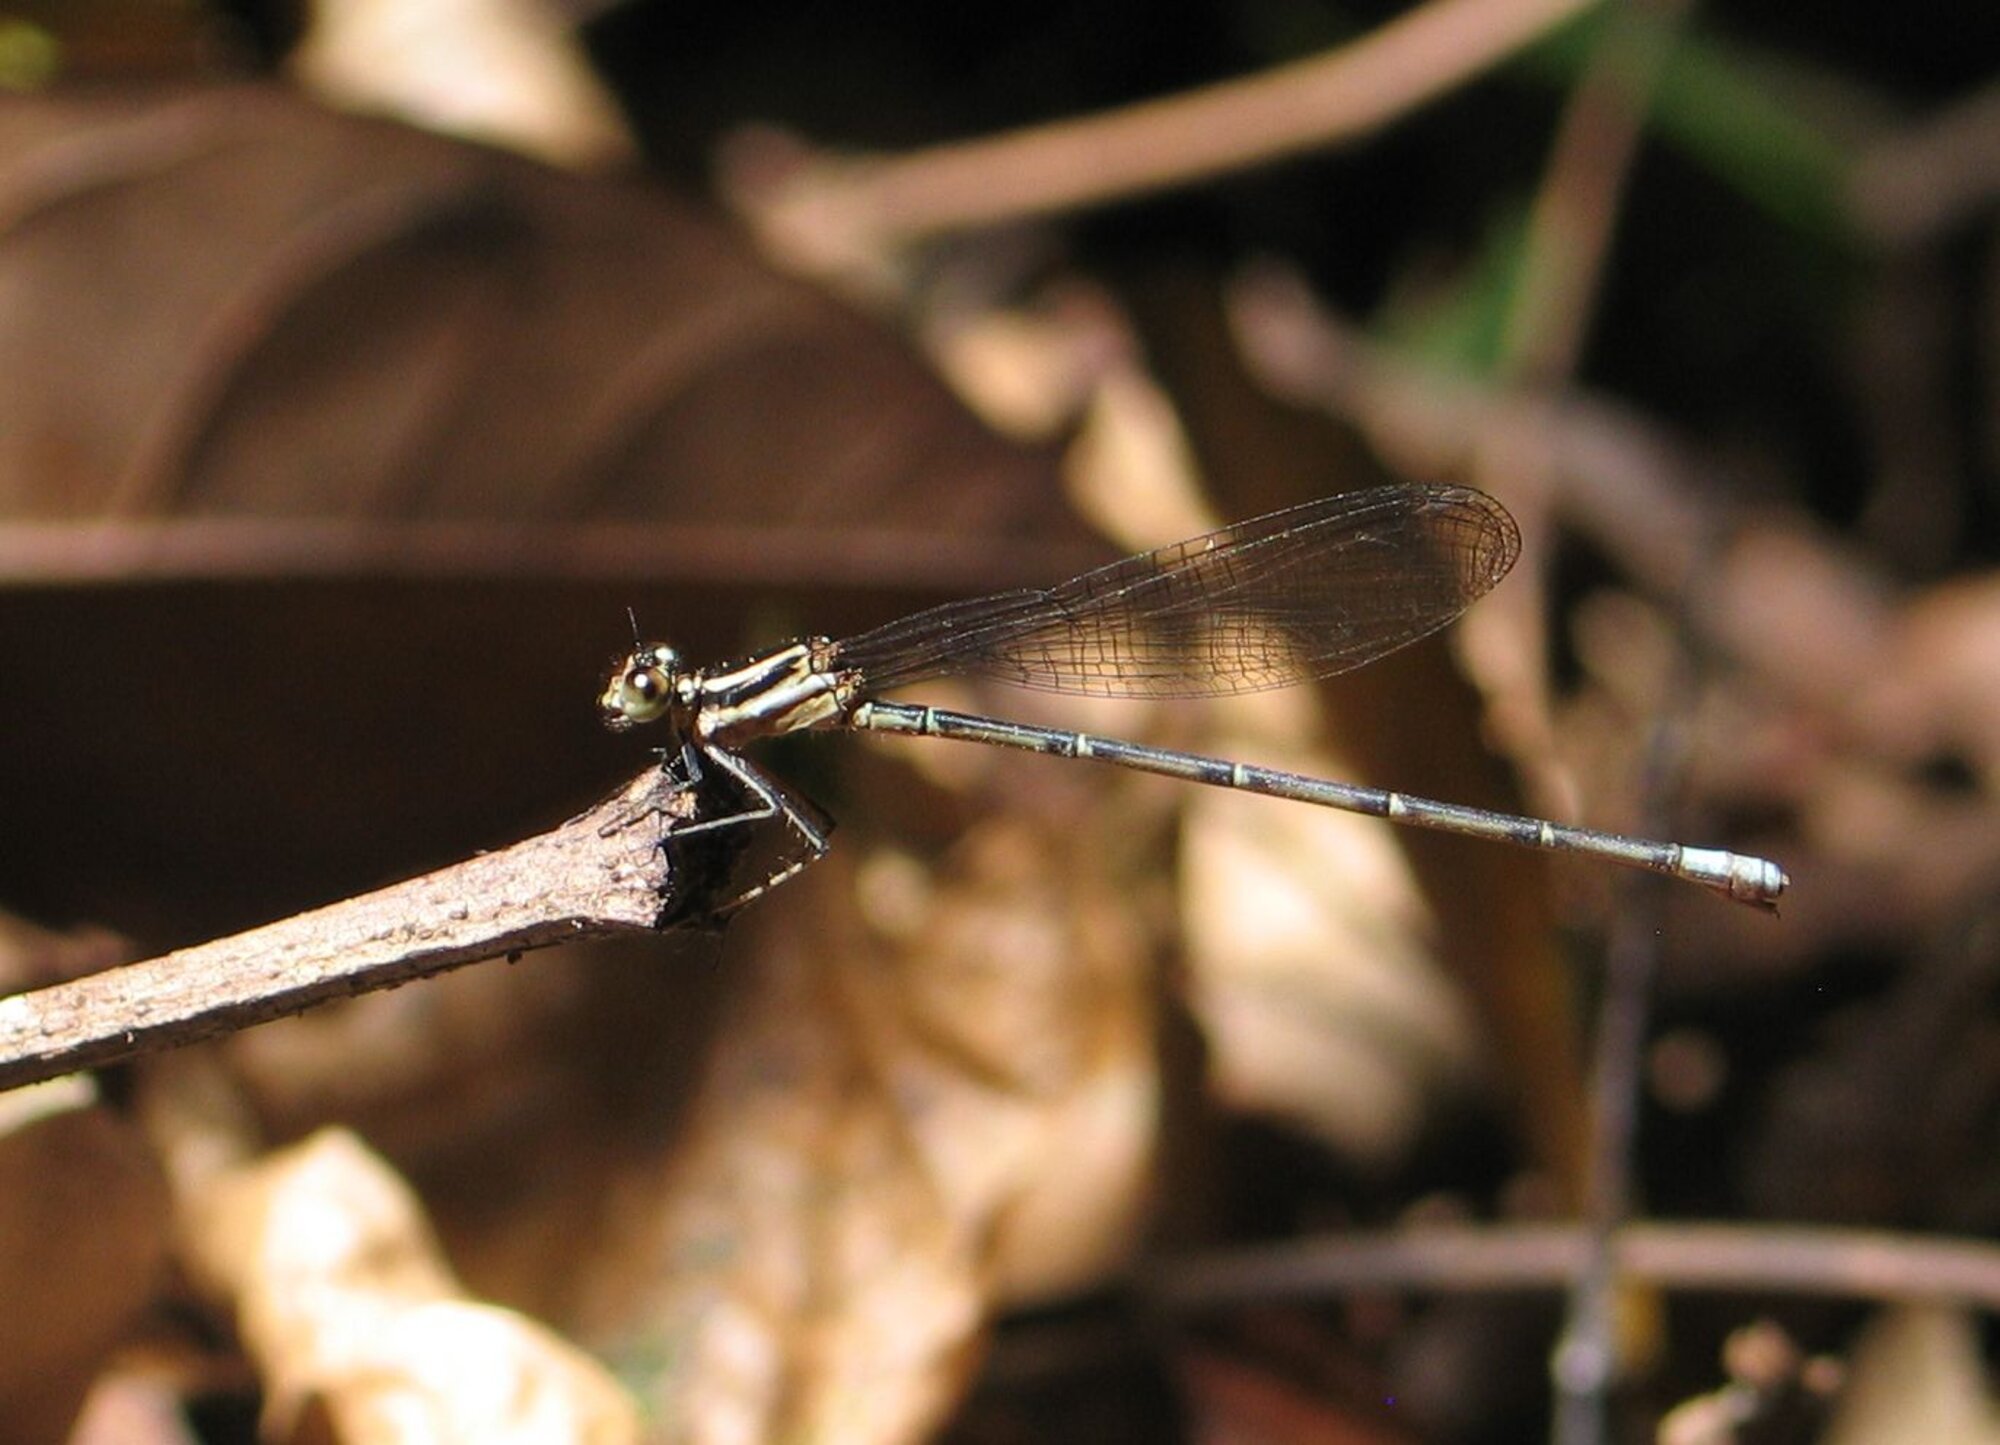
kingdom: Animalia
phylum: Arthropoda
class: Insecta
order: Odonata
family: Coenagrionidae
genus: Argia
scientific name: Argia pulla
